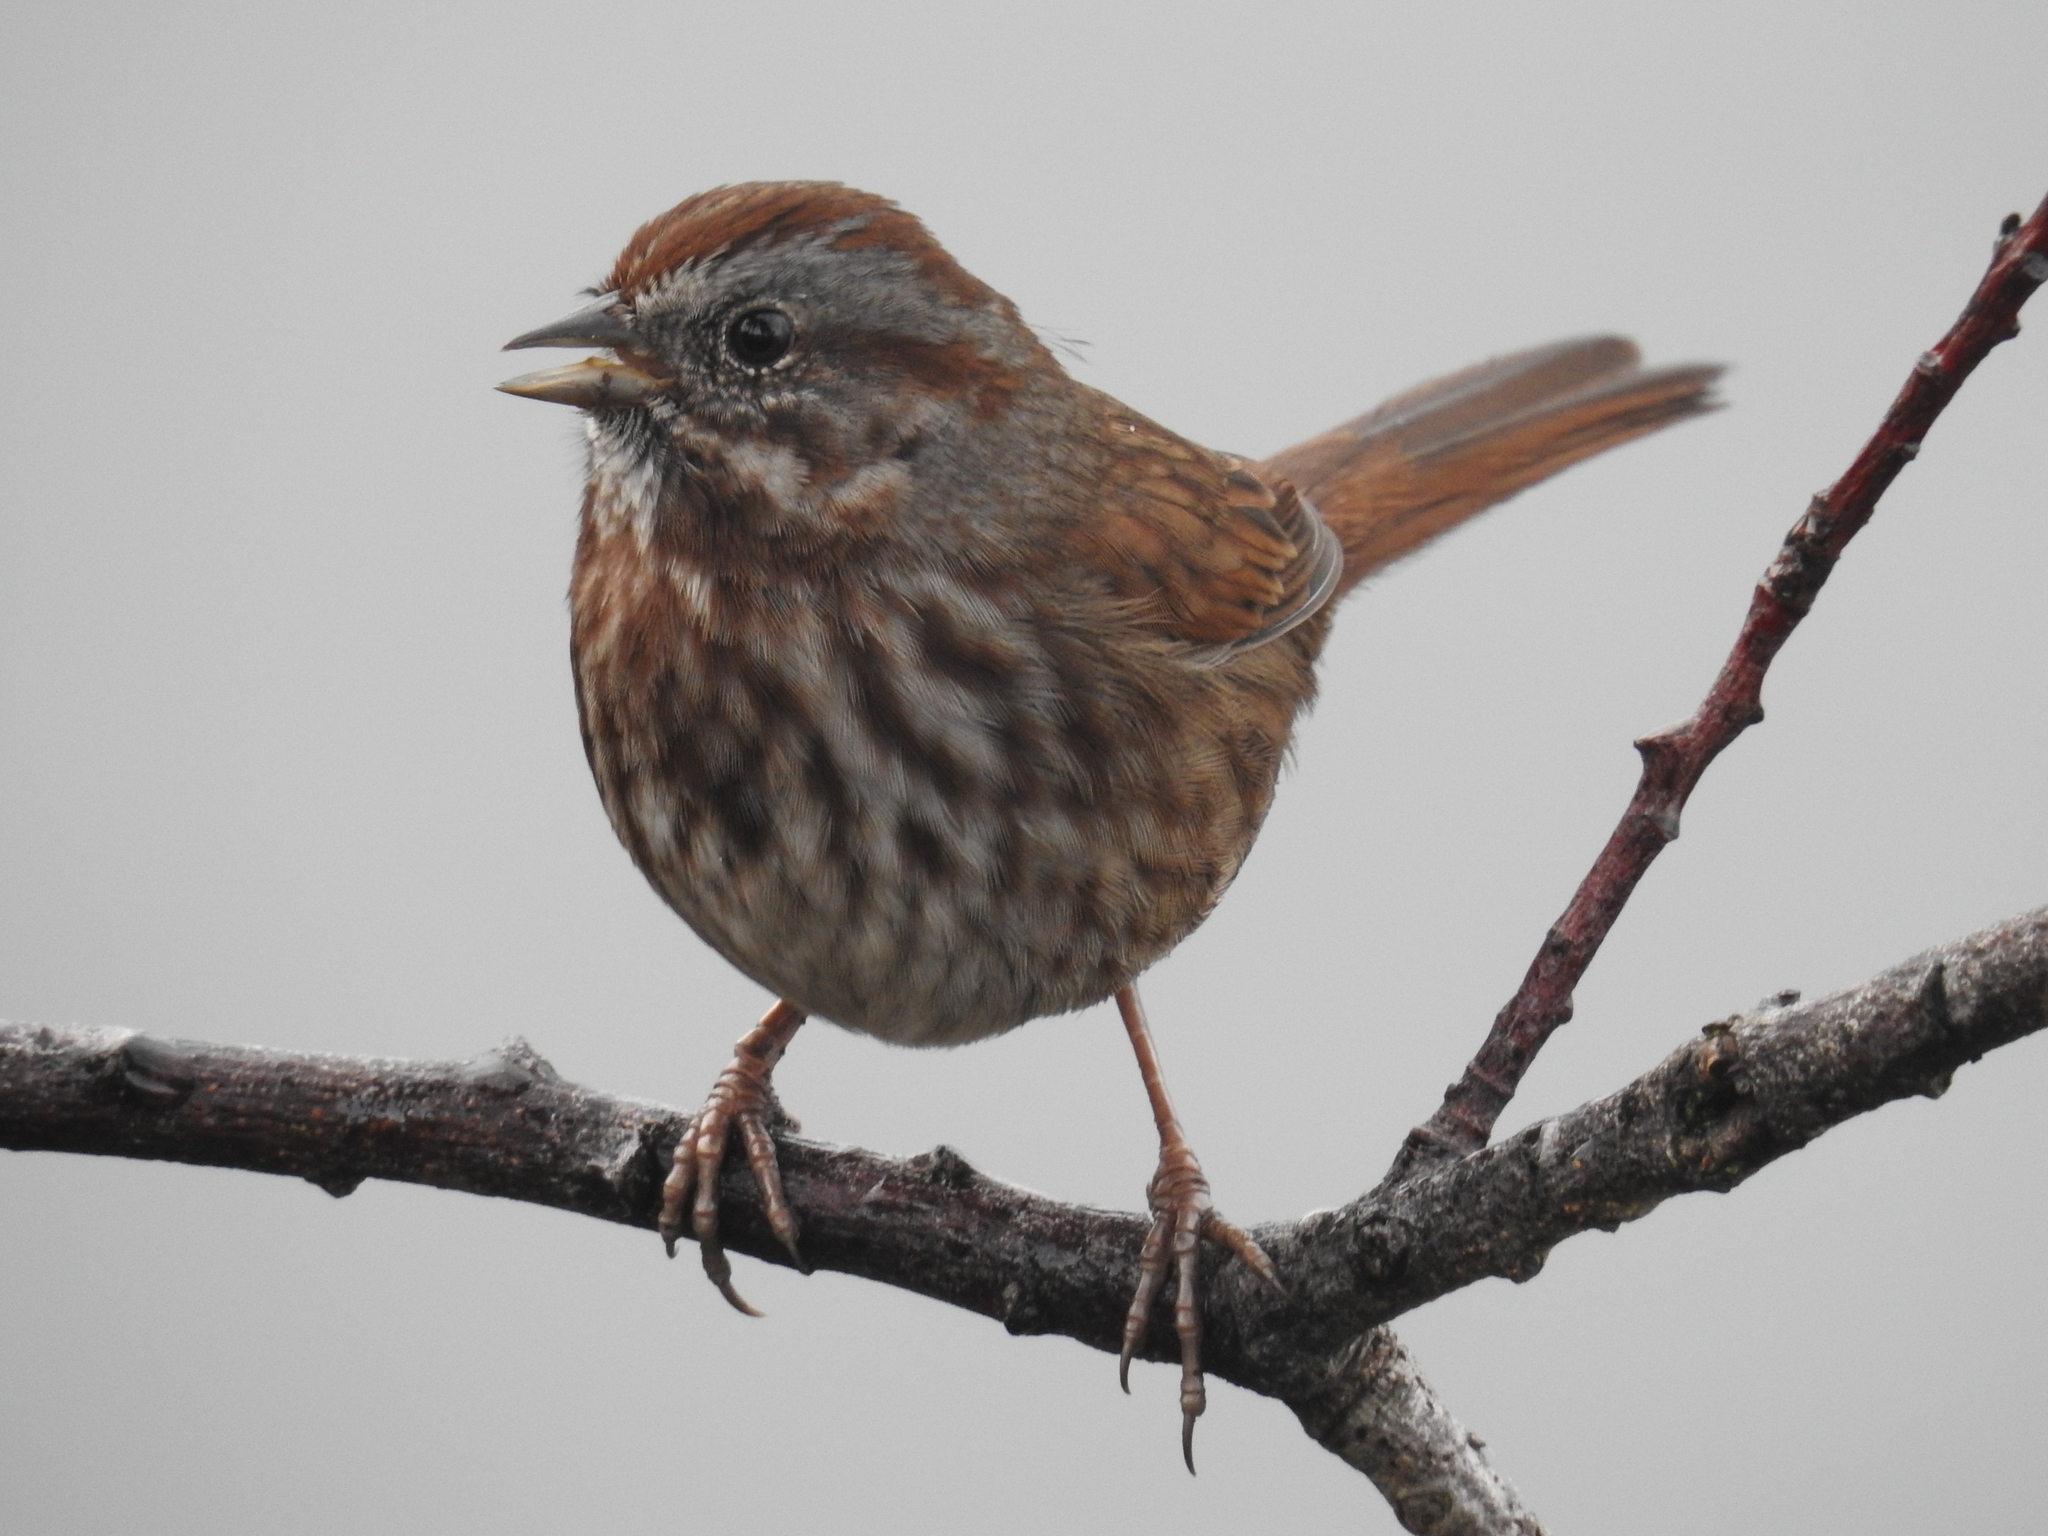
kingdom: Animalia
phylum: Chordata
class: Aves
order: Passeriformes
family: Passerellidae
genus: Melospiza
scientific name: Melospiza melodia
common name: Song sparrow
